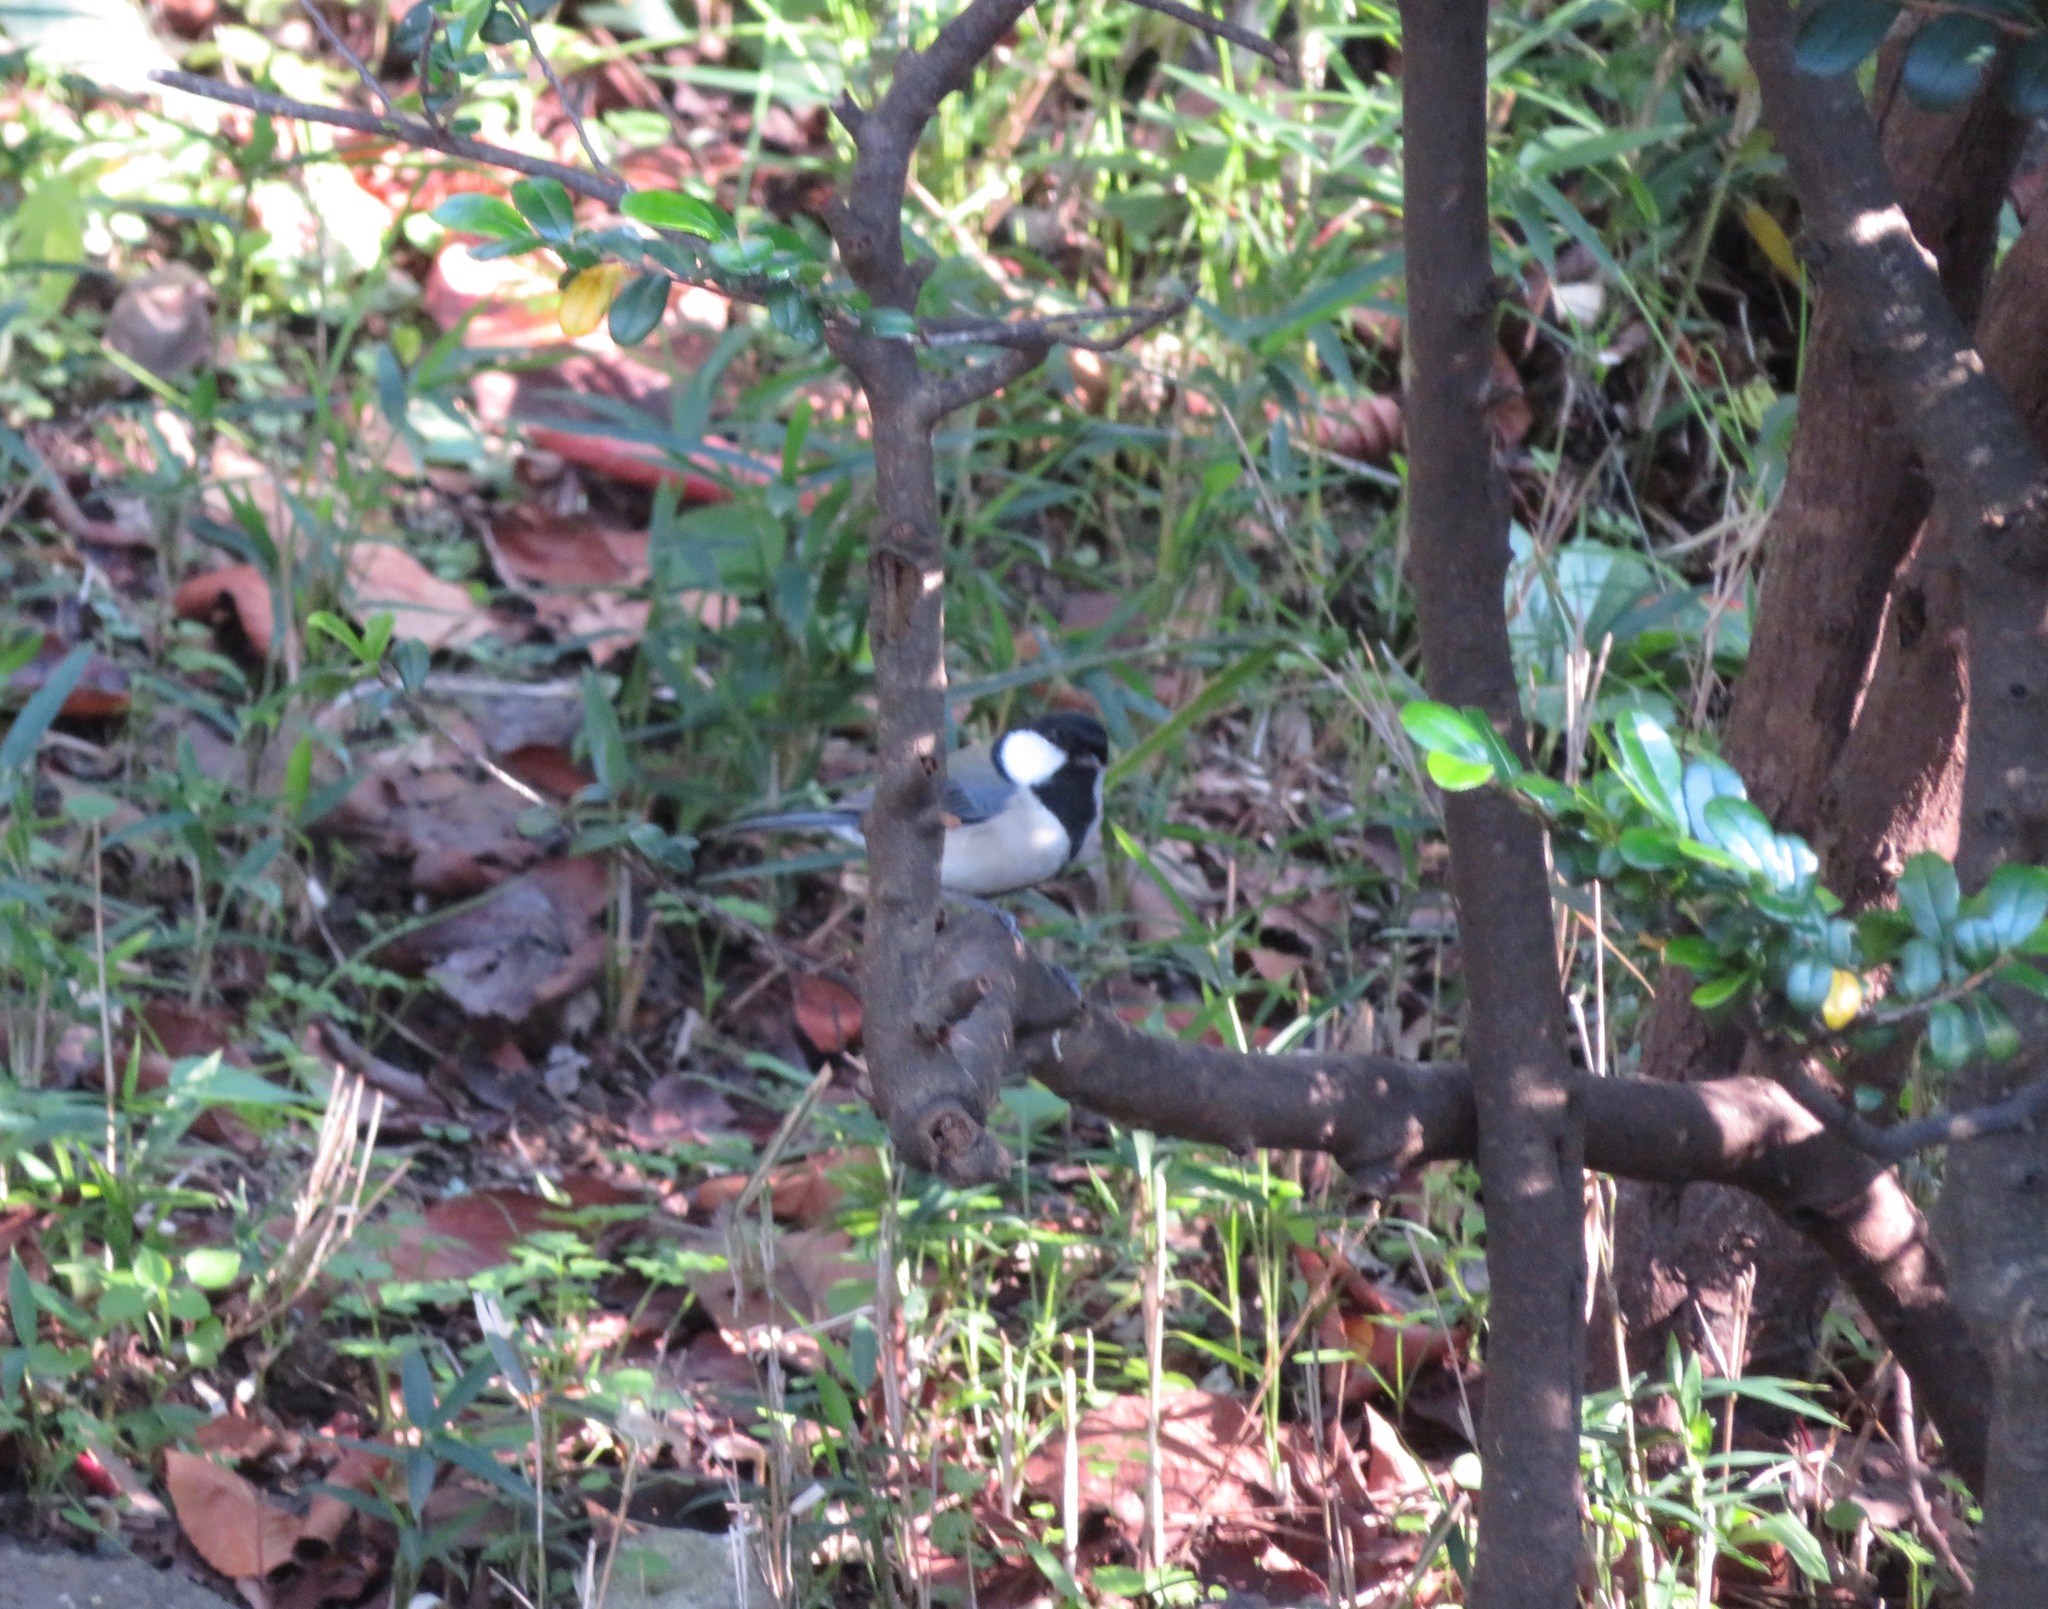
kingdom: Animalia
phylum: Chordata
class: Aves
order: Passeriformes
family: Paridae
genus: Parus
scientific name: Parus minor
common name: Japanese tit
